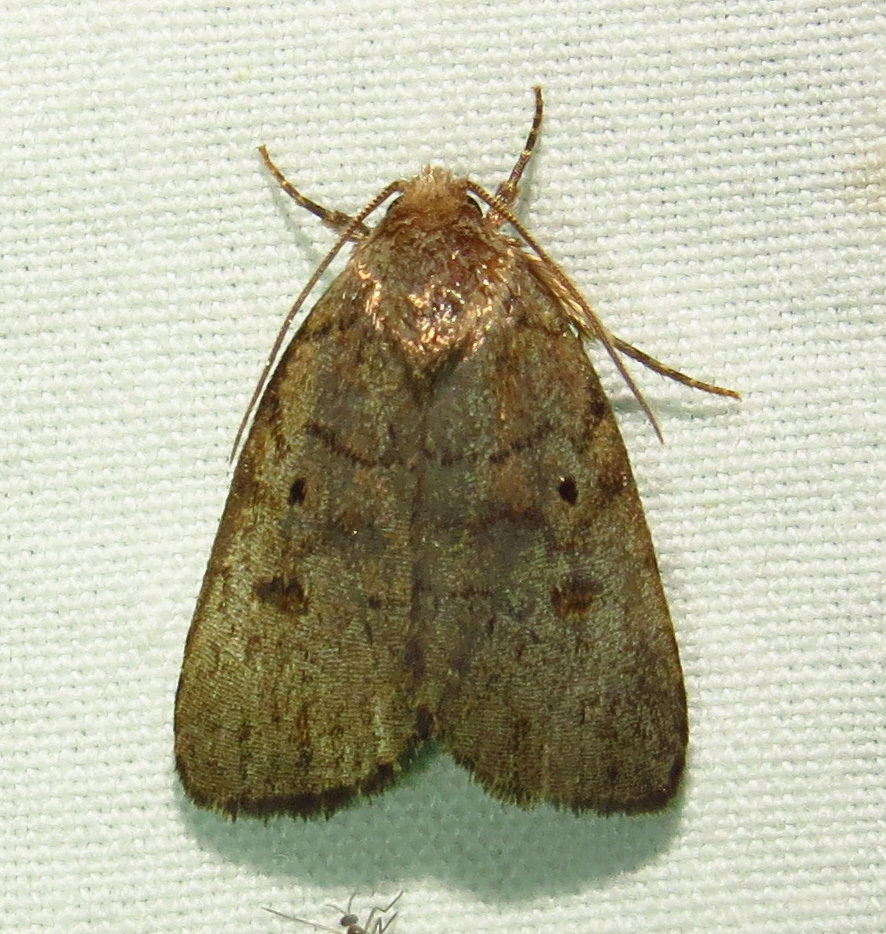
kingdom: Animalia
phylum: Arthropoda
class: Insecta
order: Lepidoptera
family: Noctuidae
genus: Athetis
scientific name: Athetis tarda
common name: Slowpoke moth
